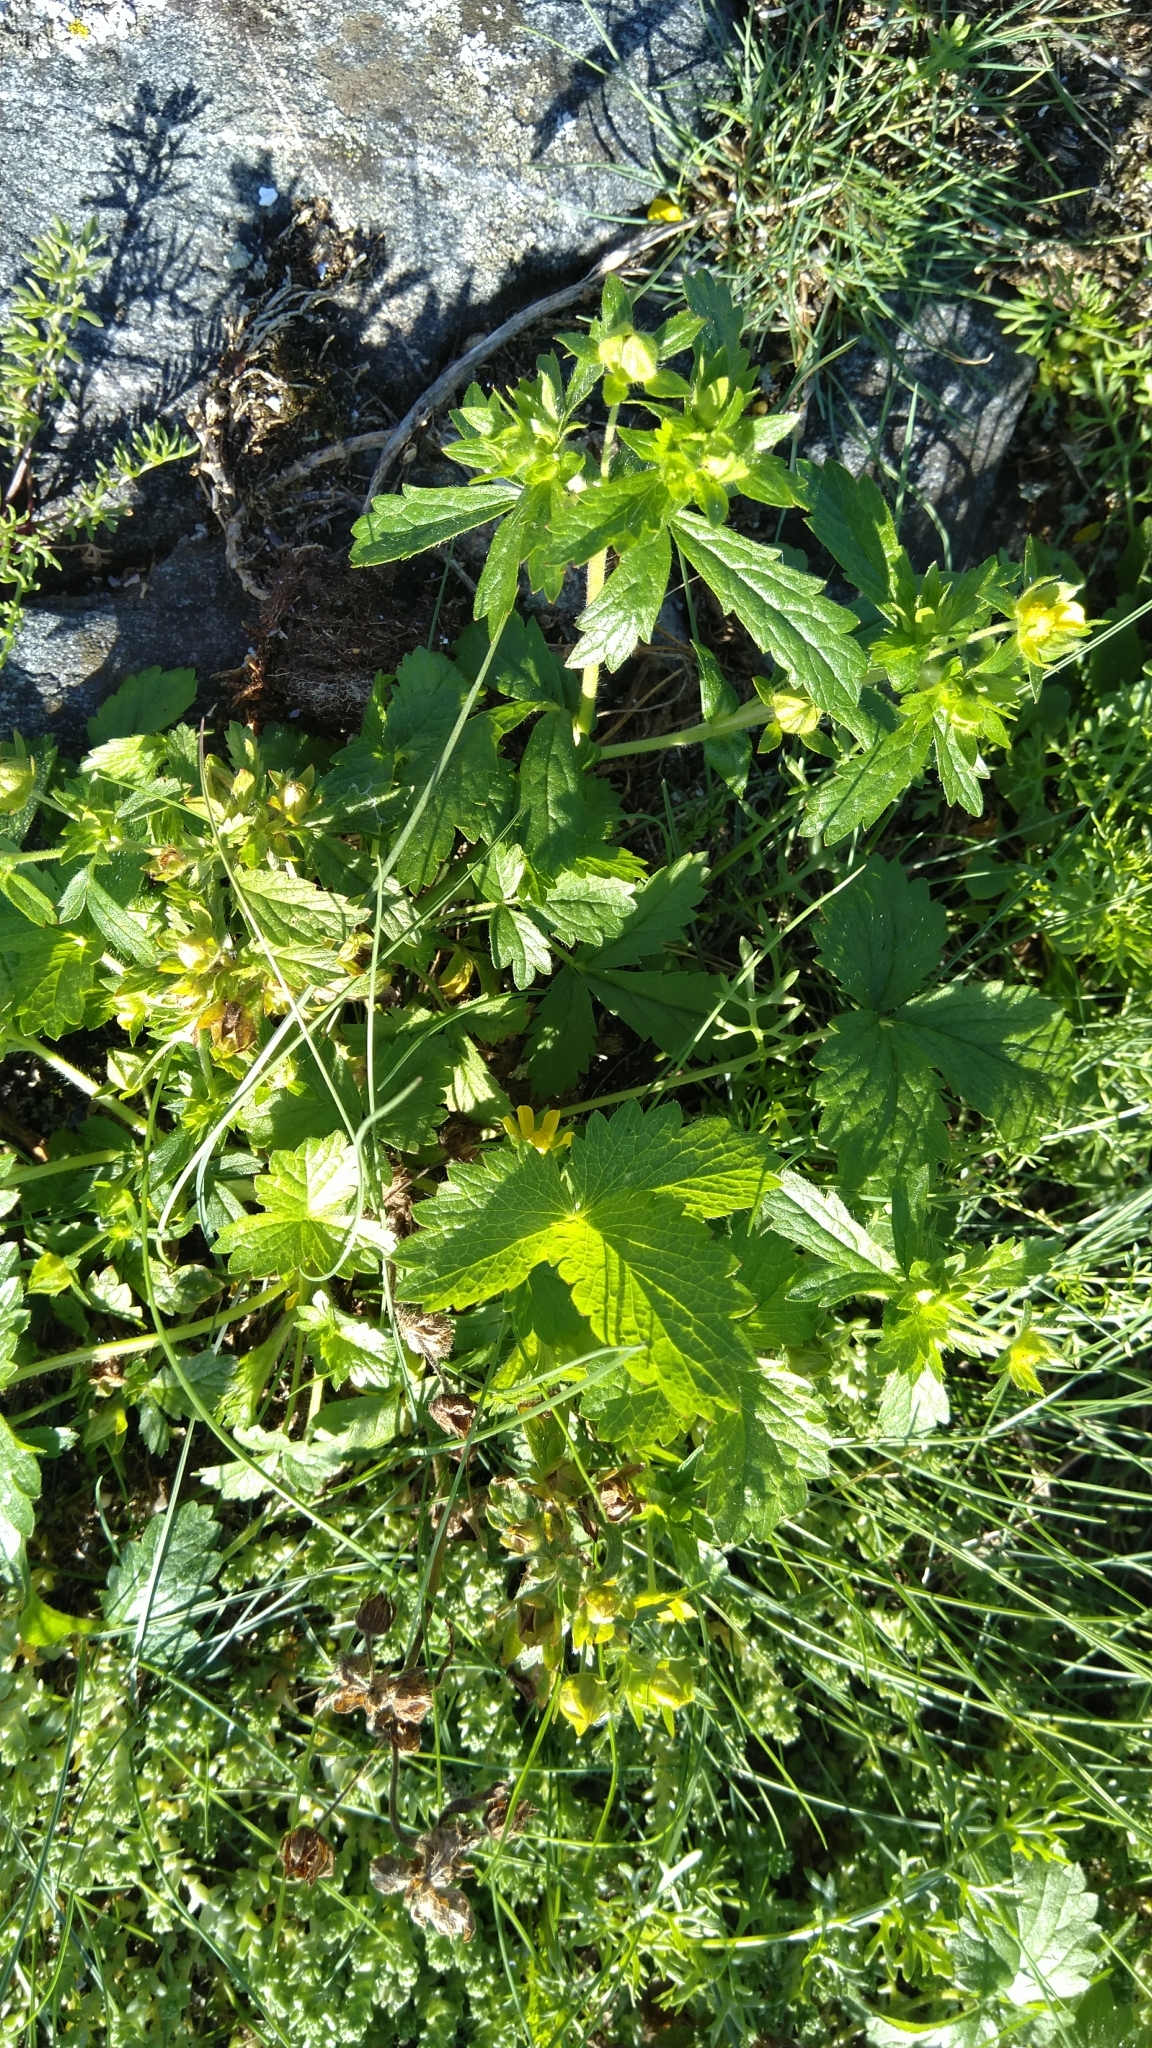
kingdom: Plantae
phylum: Tracheophyta
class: Magnoliopsida
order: Rosales
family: Rosaceae
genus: Potentilla
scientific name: Potentilla norvegica
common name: Ternate-leaved cinquefoil
